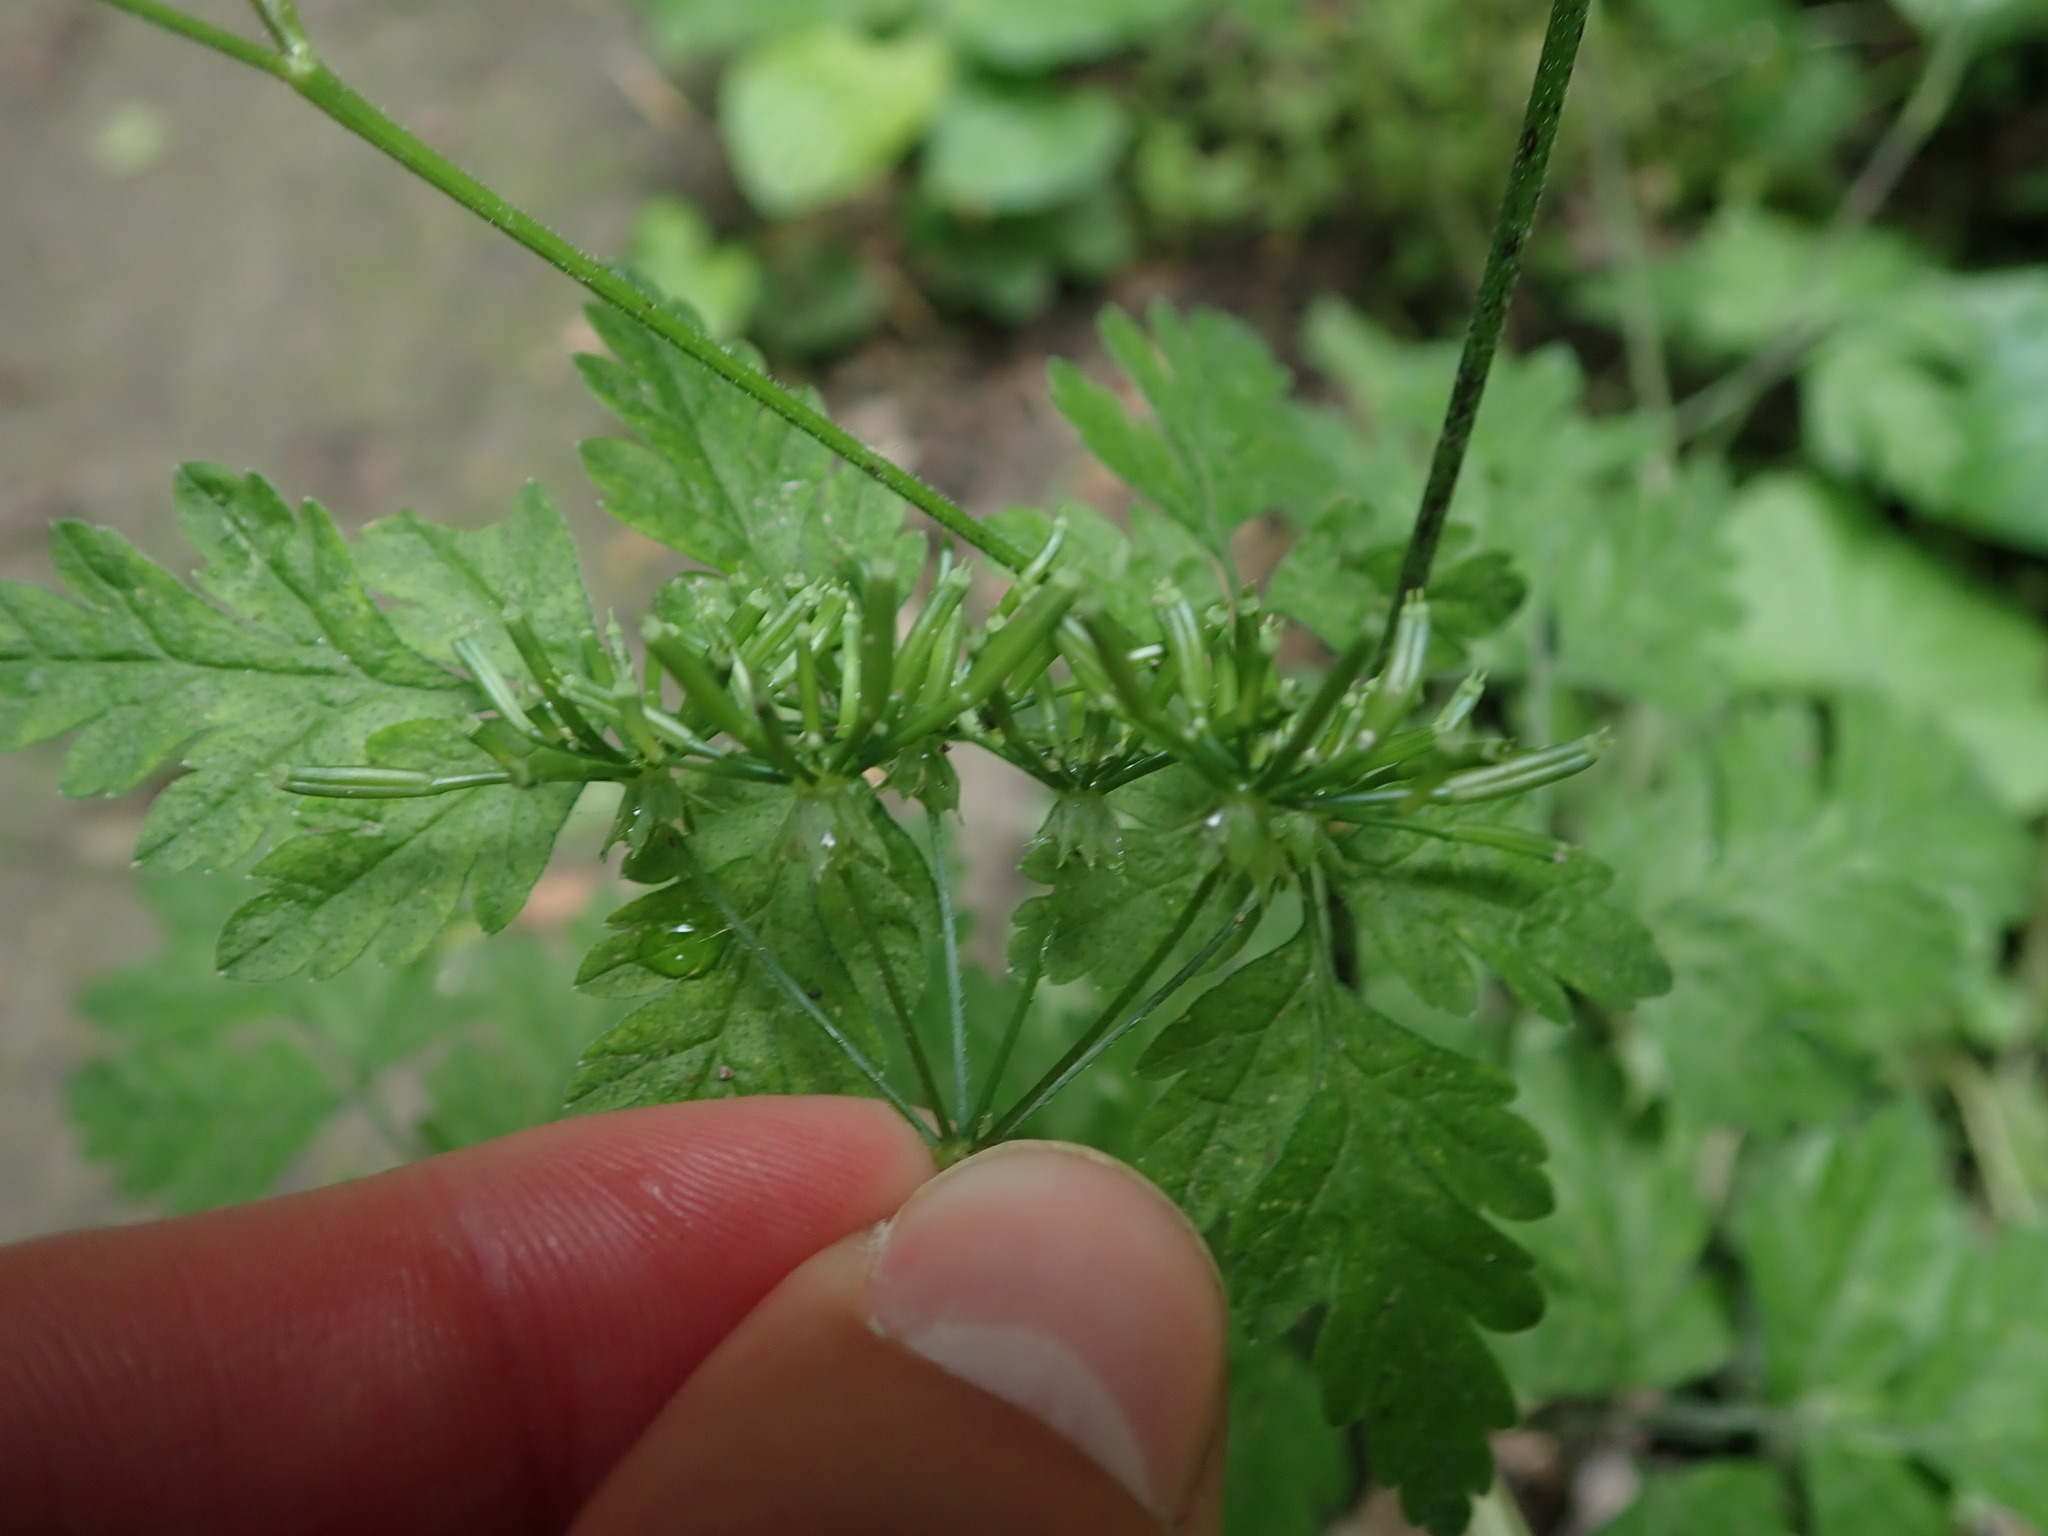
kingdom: Plantae
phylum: Tracheophyta
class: Magnoliopsida
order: Apiales
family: Apiaceae
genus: Chaerophyllum
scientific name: Chaerophyllum temulum
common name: Rough chervil
